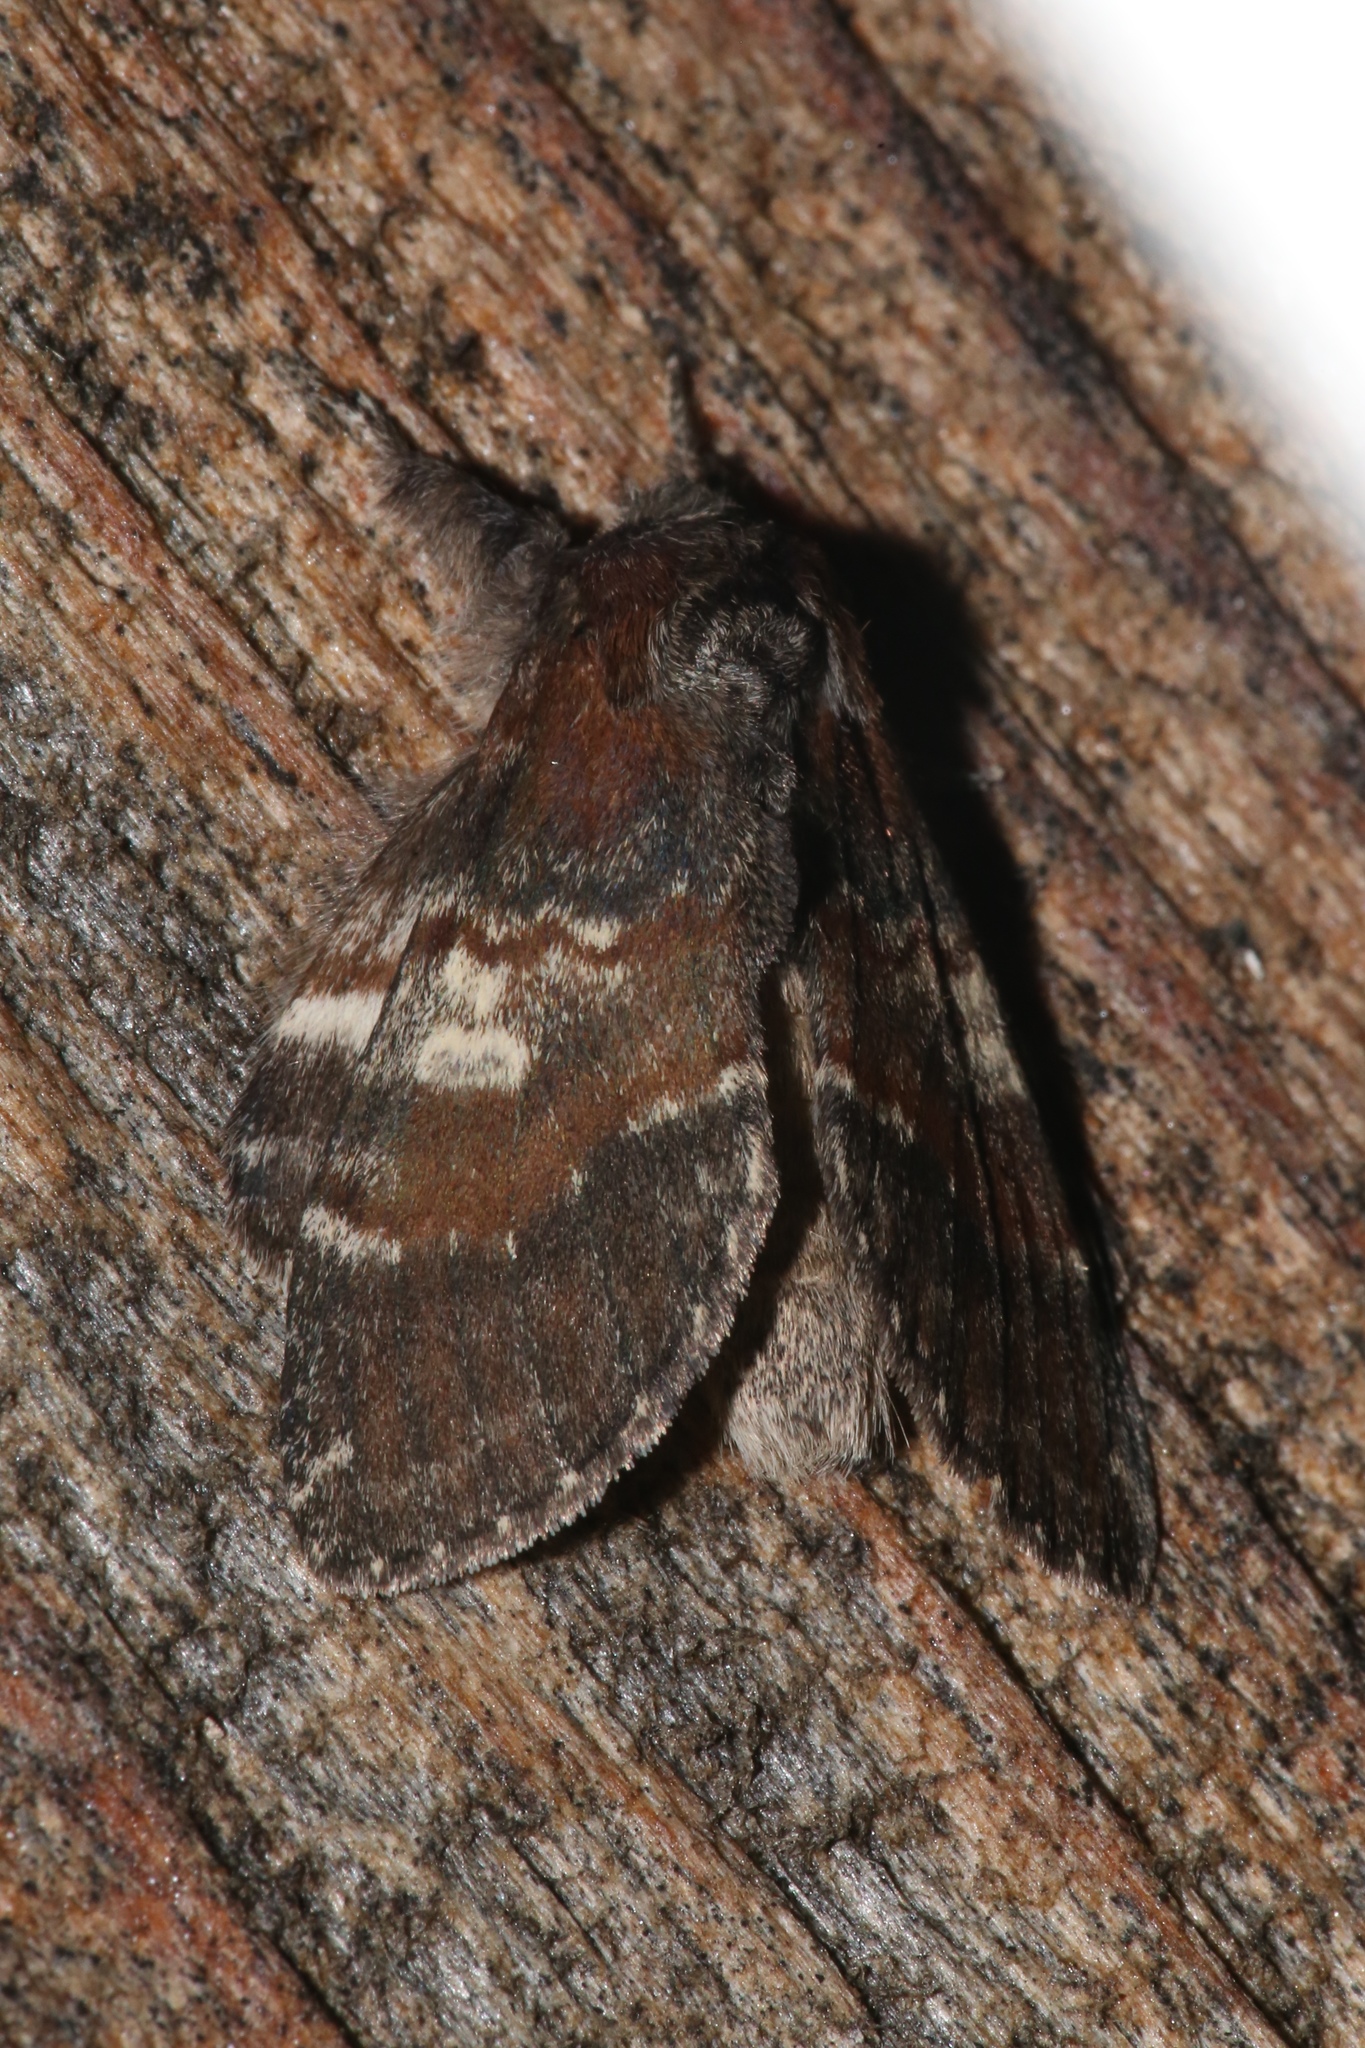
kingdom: Animalia
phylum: Arthropoda
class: Insecta
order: Lepidoptera
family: Notodontidae
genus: Peridea
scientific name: Peridea ferruginea
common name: Chocolate prominent
